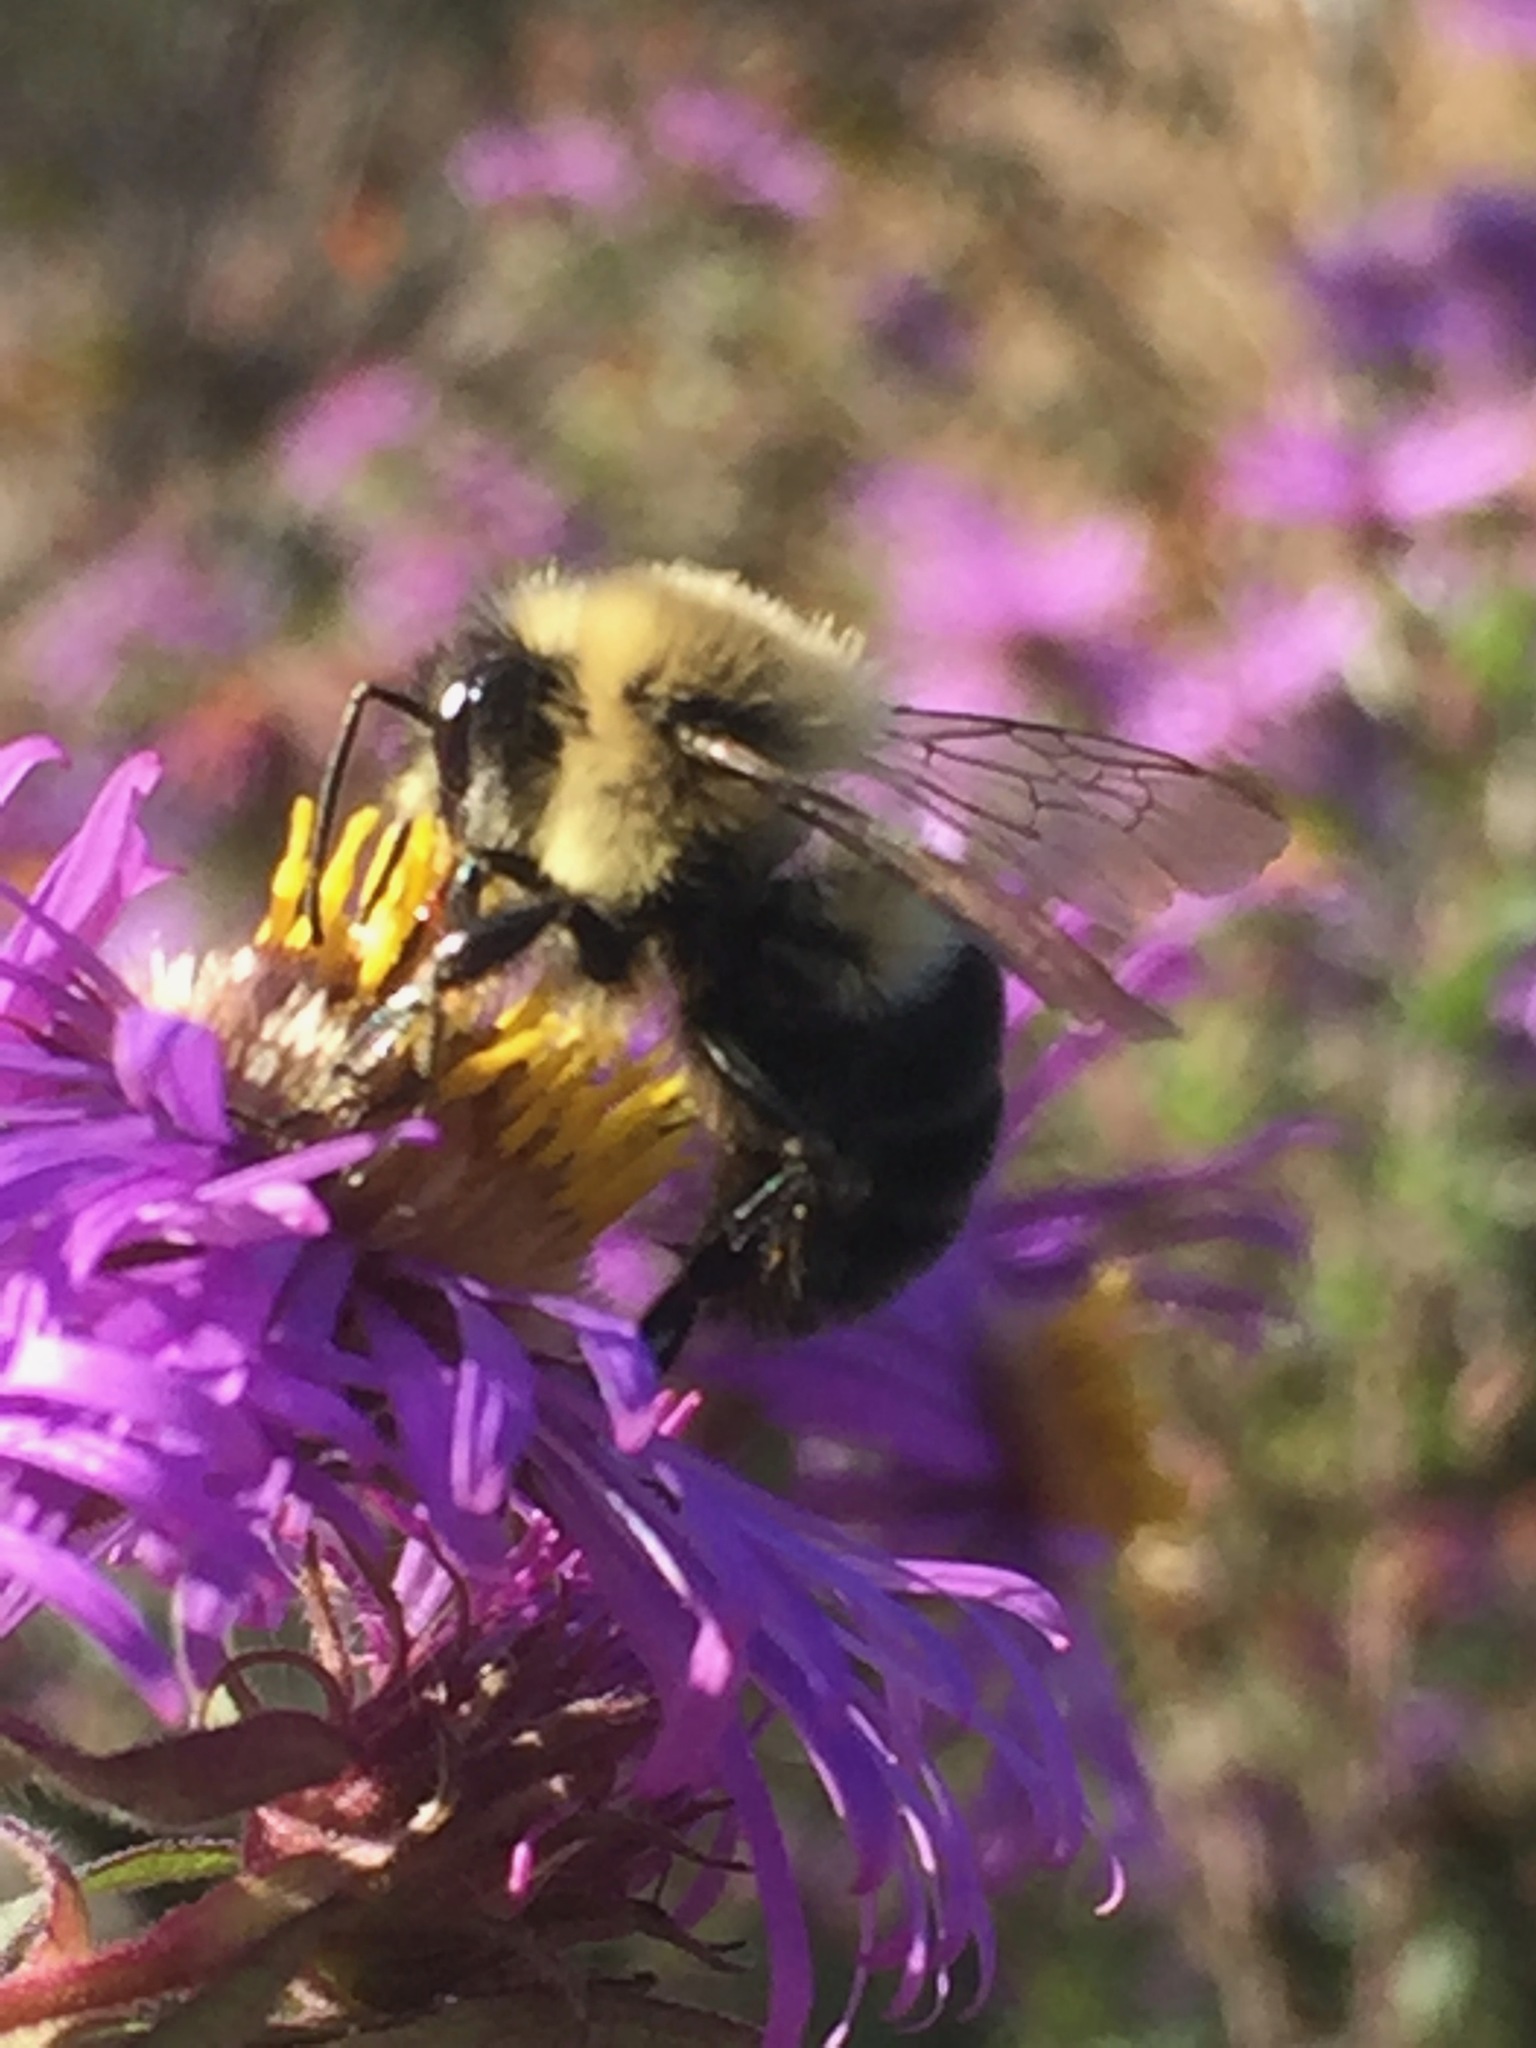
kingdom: Animalia
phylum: Arthropoda
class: Insecta
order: Hymenoptera
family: Apidae
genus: Bombus
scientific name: Bombus impatiens
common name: Common eastern bumble bee
